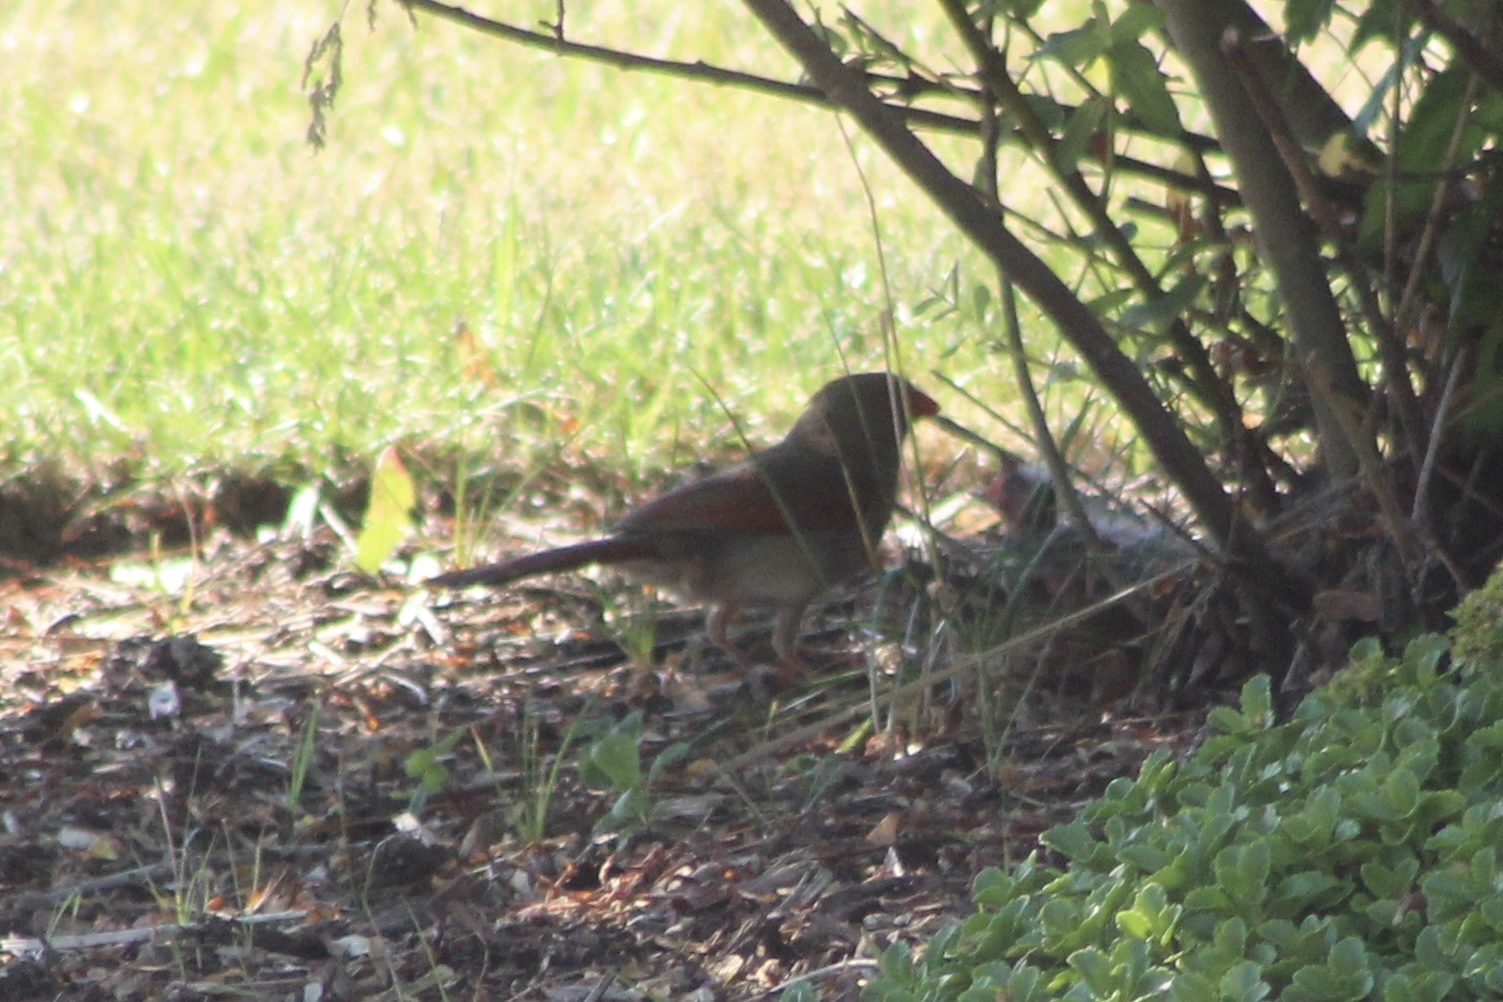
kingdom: Animalia
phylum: Chordata
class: Aves
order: Passeriformes
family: Cardinalidae
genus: Cardinalis
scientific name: Cardinalis cardinalis
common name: Northern cardinal
